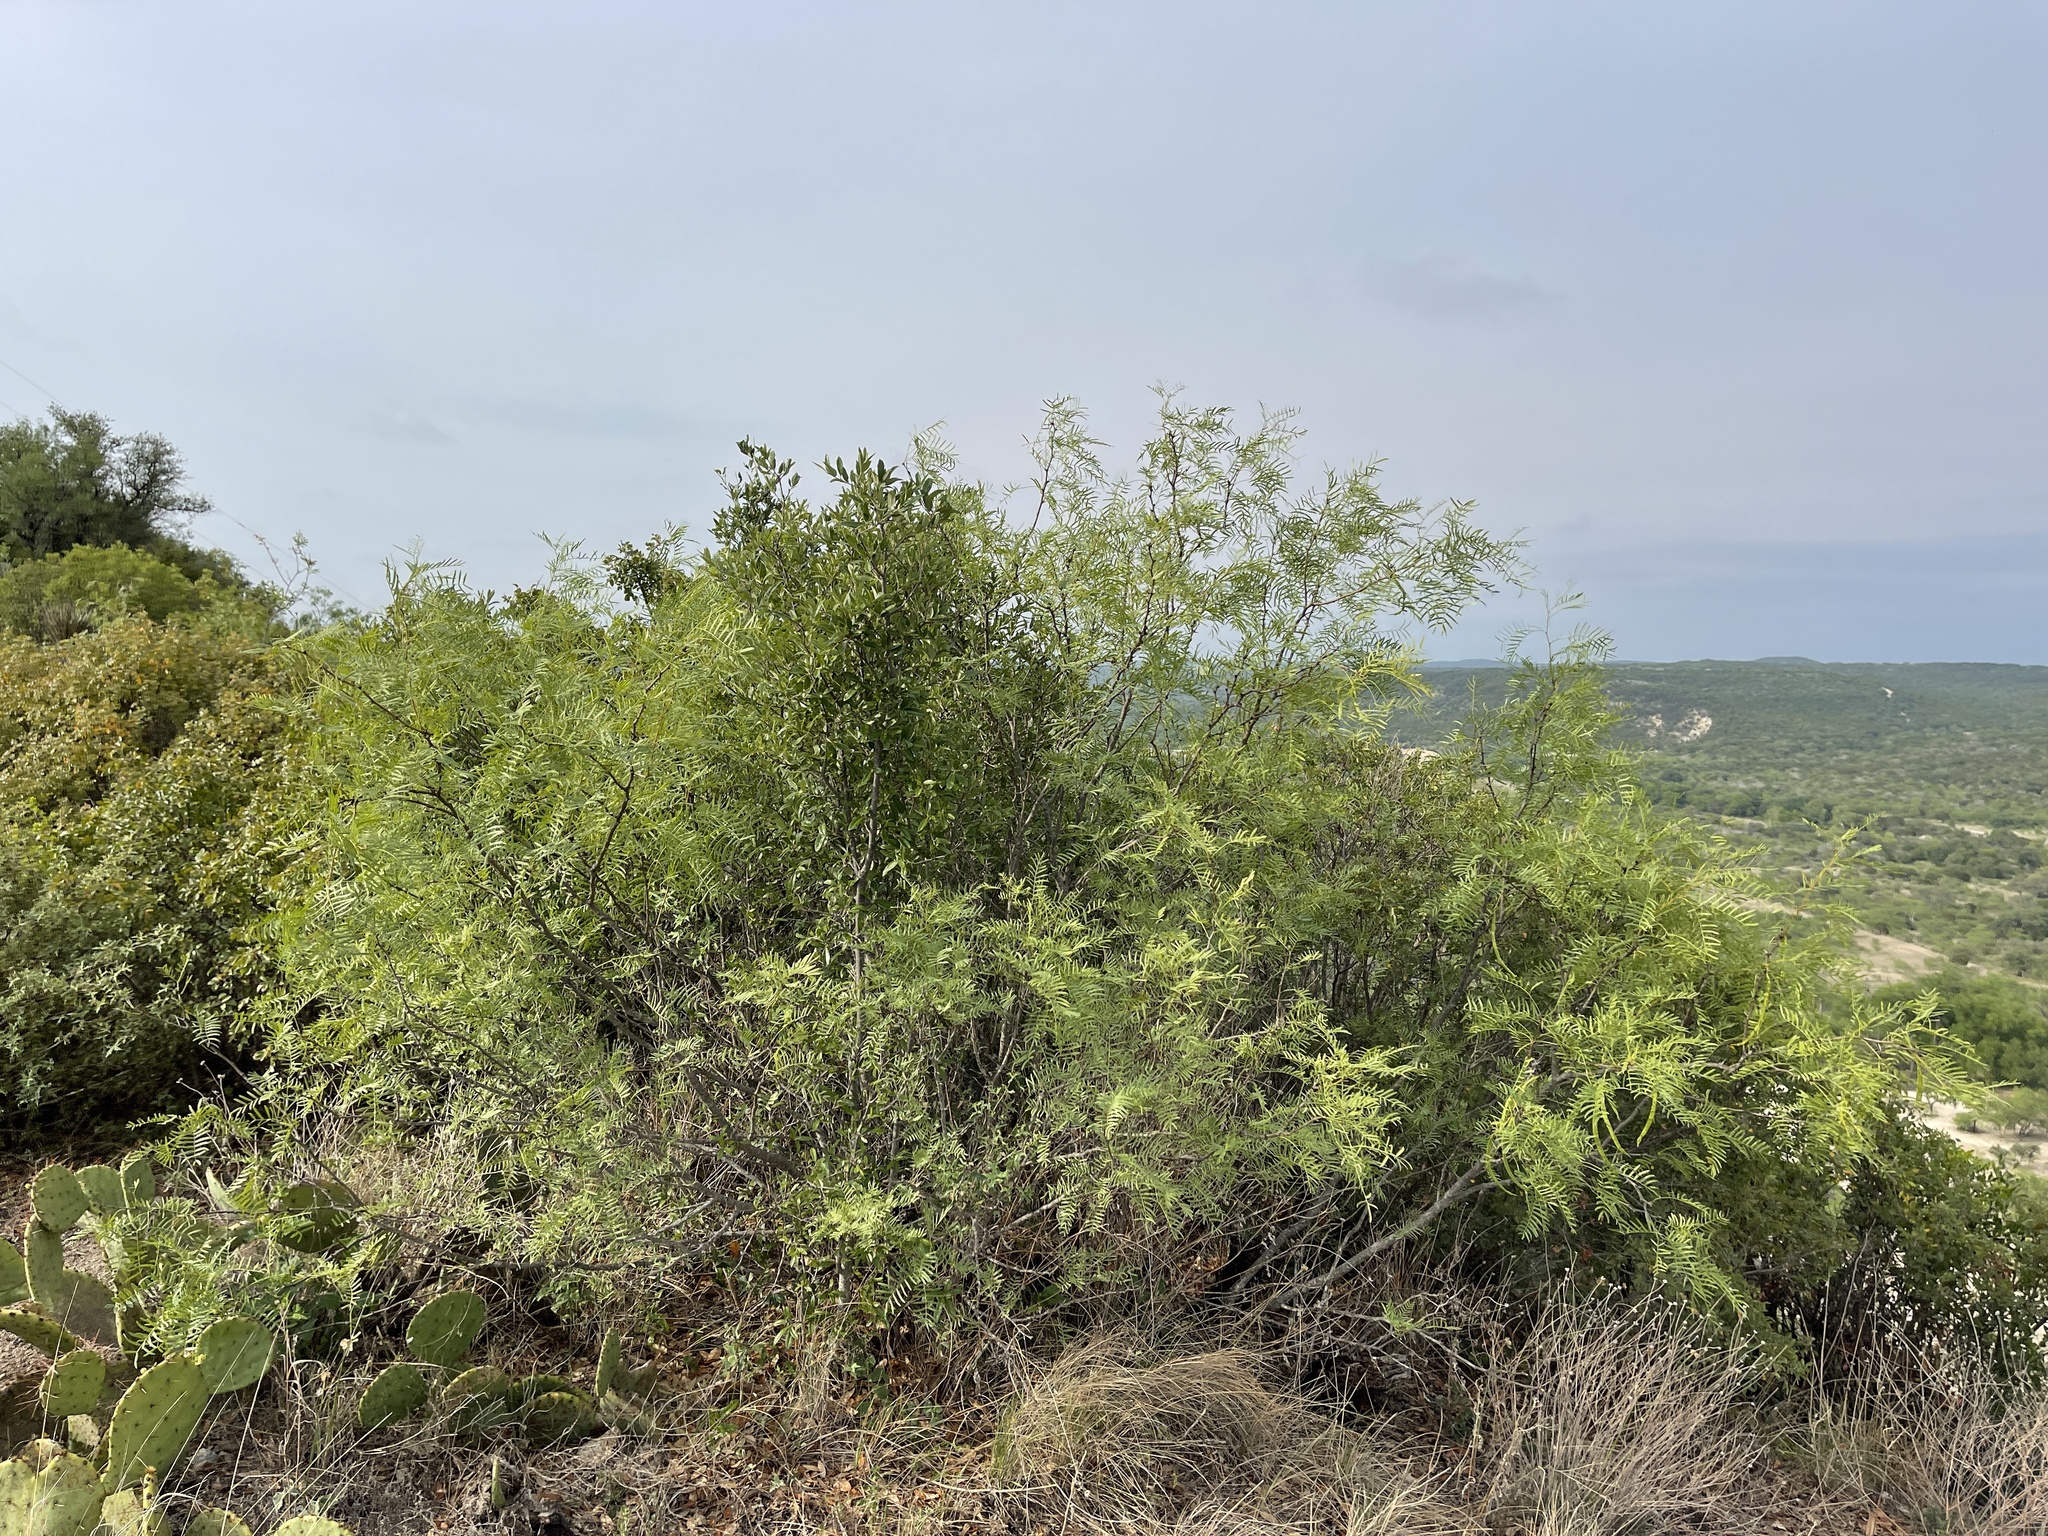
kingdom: Plantae
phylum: Tracheophyta
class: Magnoliopsida
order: Fabales
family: Fabaceae
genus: Prosopis
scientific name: Prosopis glandulosa
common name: Honey mesquite
